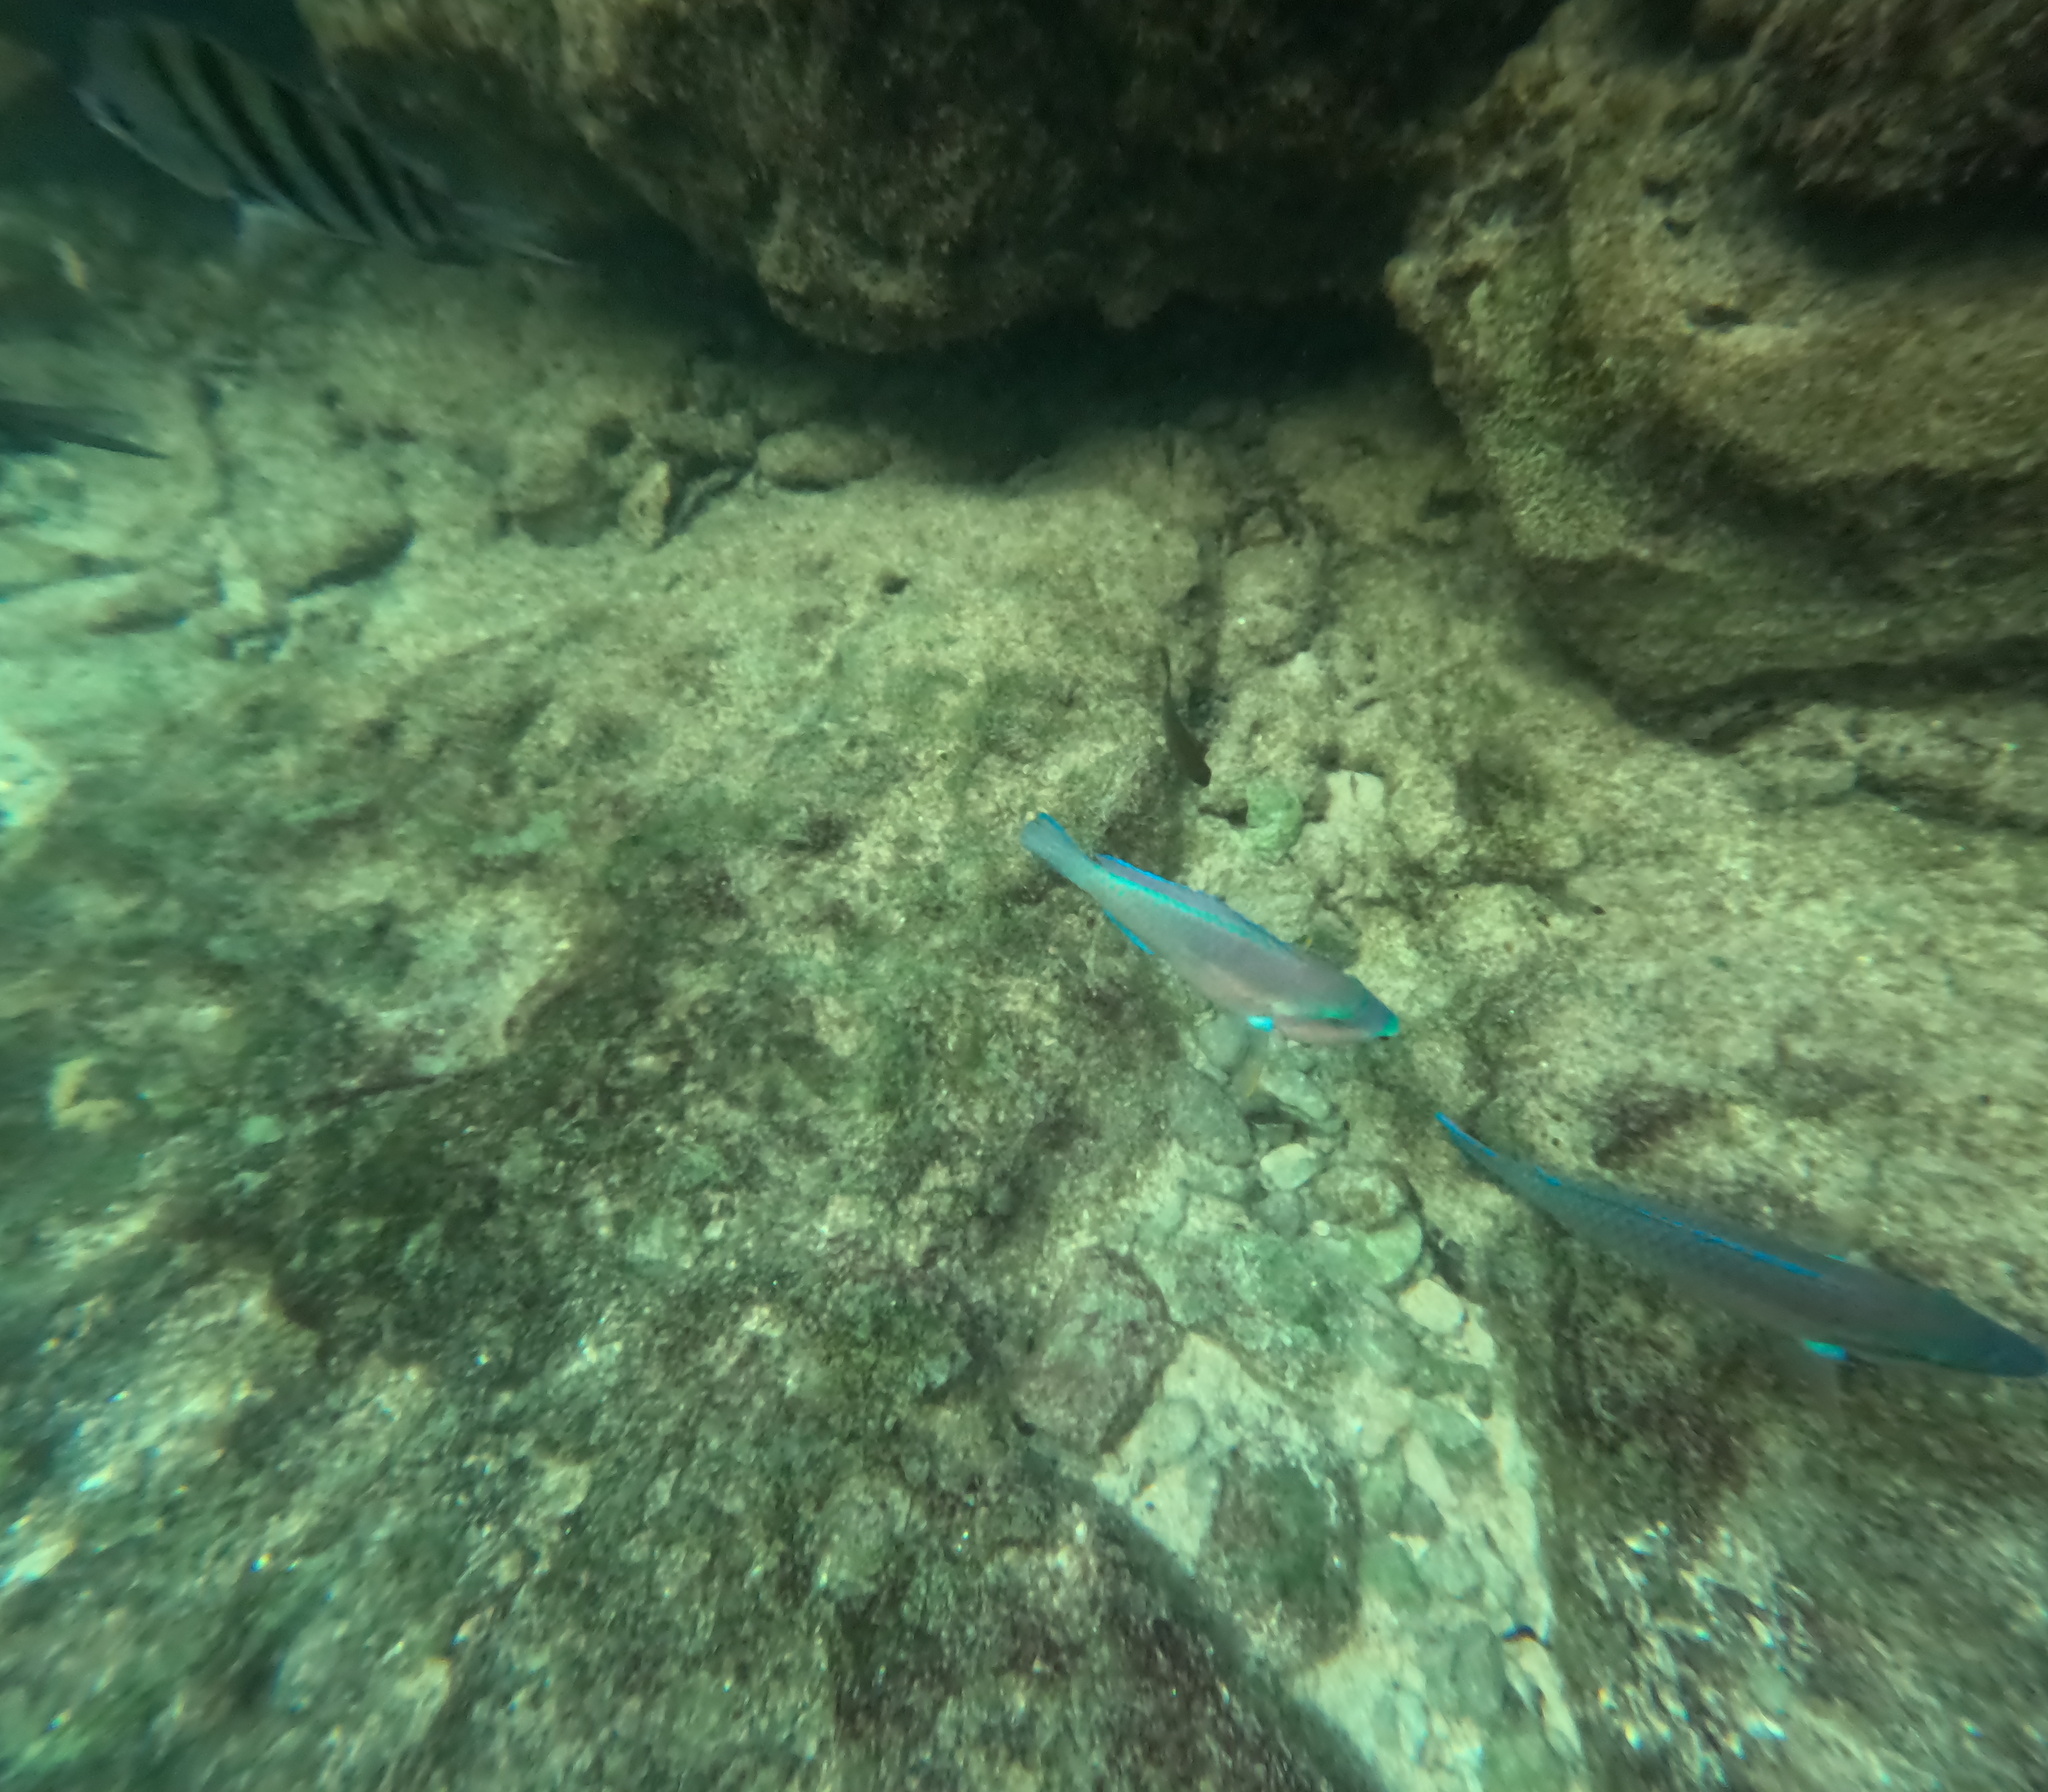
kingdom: Animalia
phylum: Chordata
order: Perciformes
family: Scaridae
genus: Scarus
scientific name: Scarus iseri
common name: Striped parrotfish
